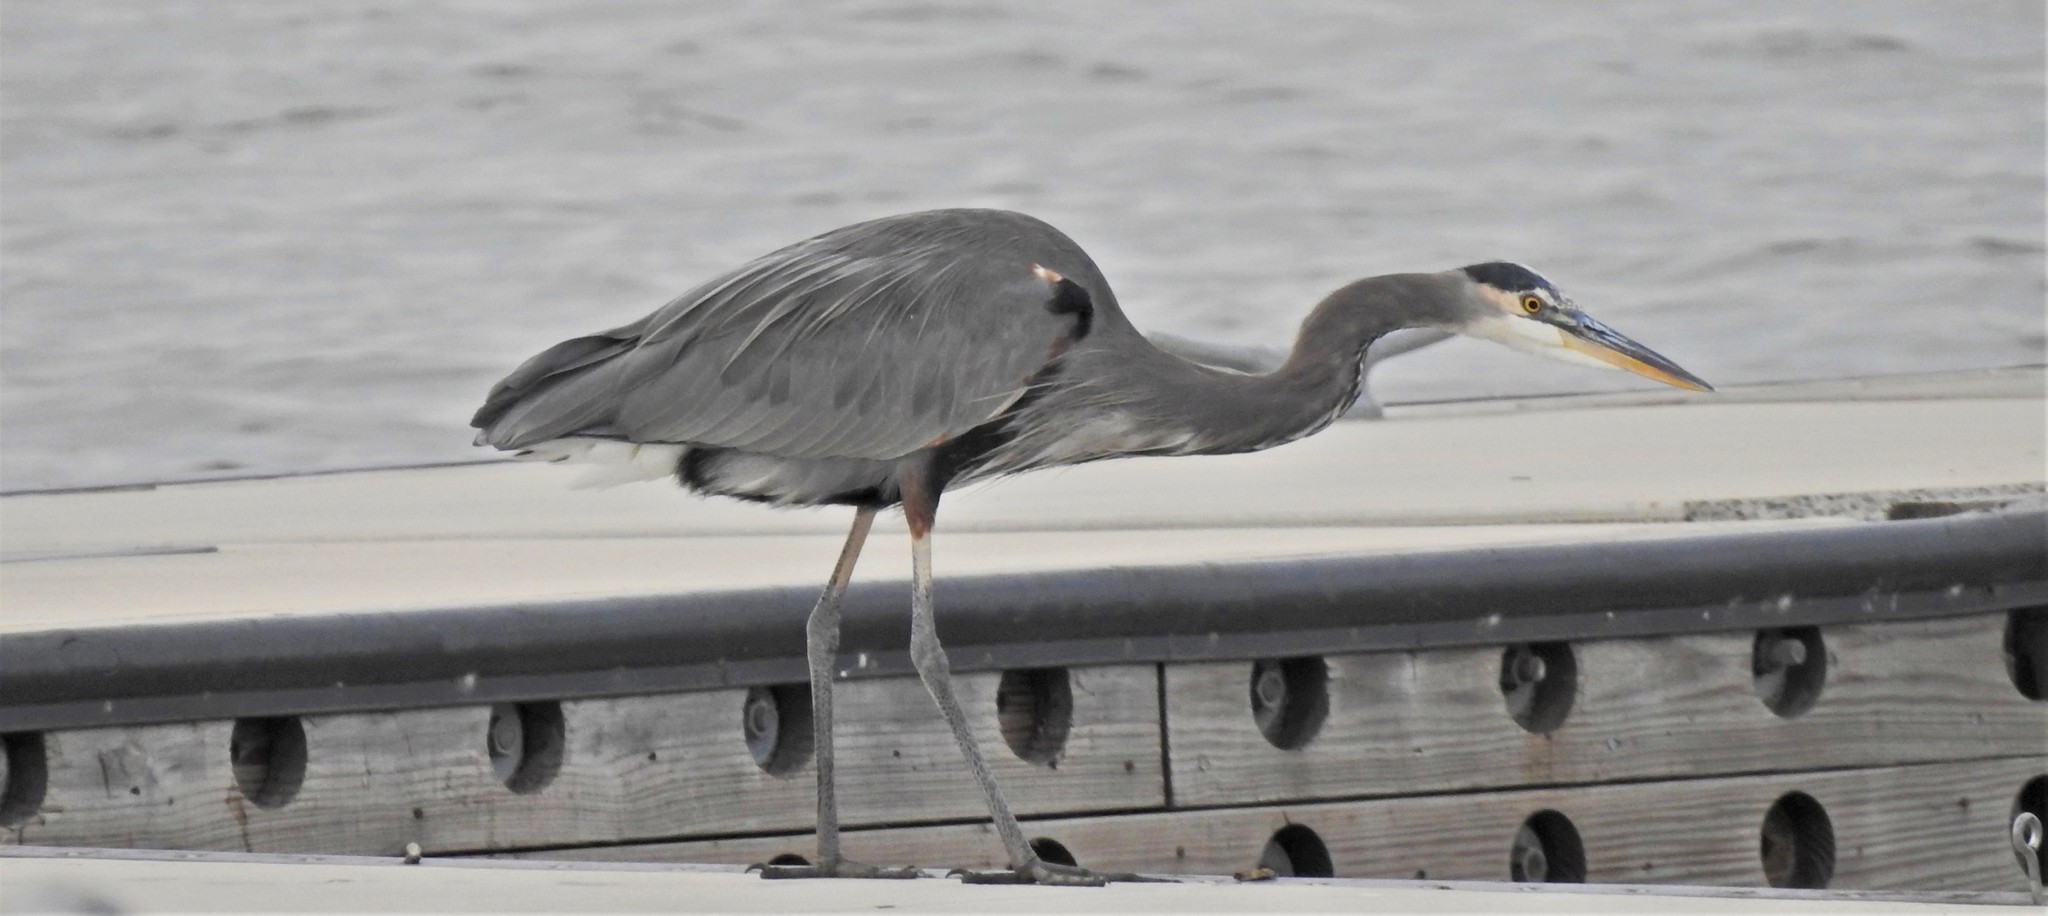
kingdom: Animalia
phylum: Chordata
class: Aves
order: Pelecaniformes
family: Ardeidae
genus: Ardea
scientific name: Ardea herodias
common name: Great blue heron
